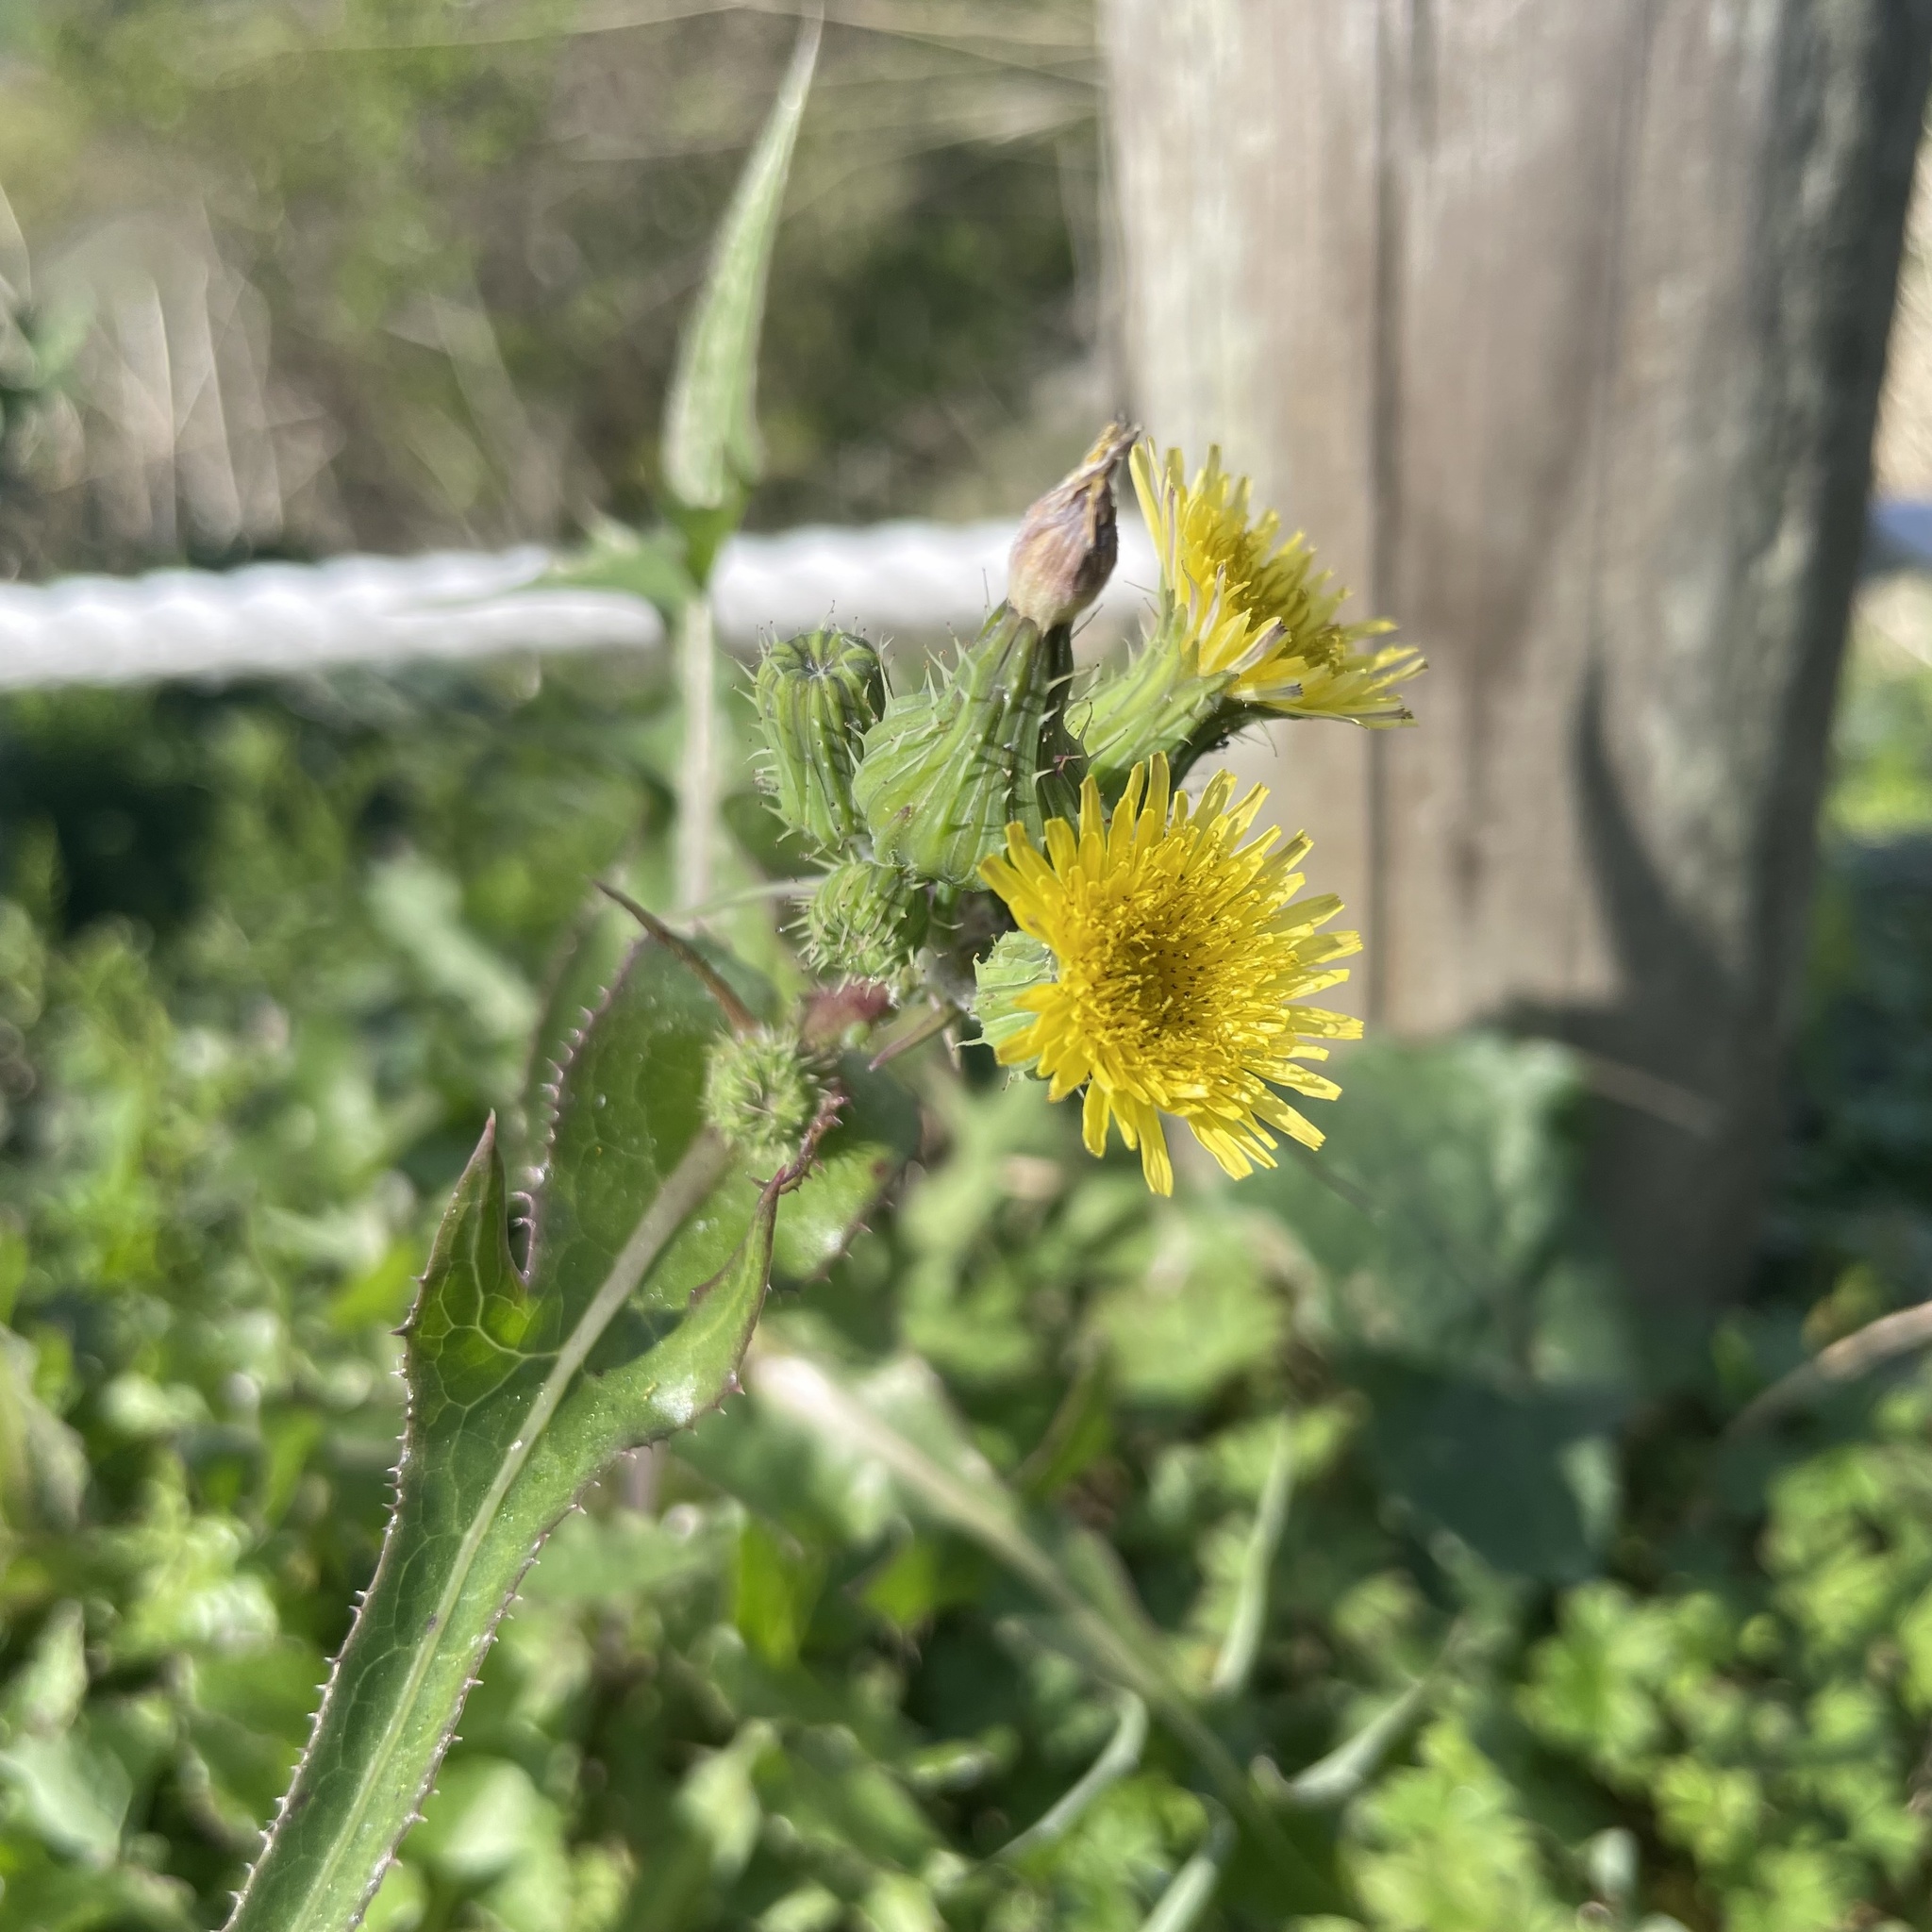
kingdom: Plantae
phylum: Tracheophyta
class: Magnoliopsida
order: Asterales
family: Asteraceae
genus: Sonchus
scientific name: Sonchus oleraceus
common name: Common sowthistle
